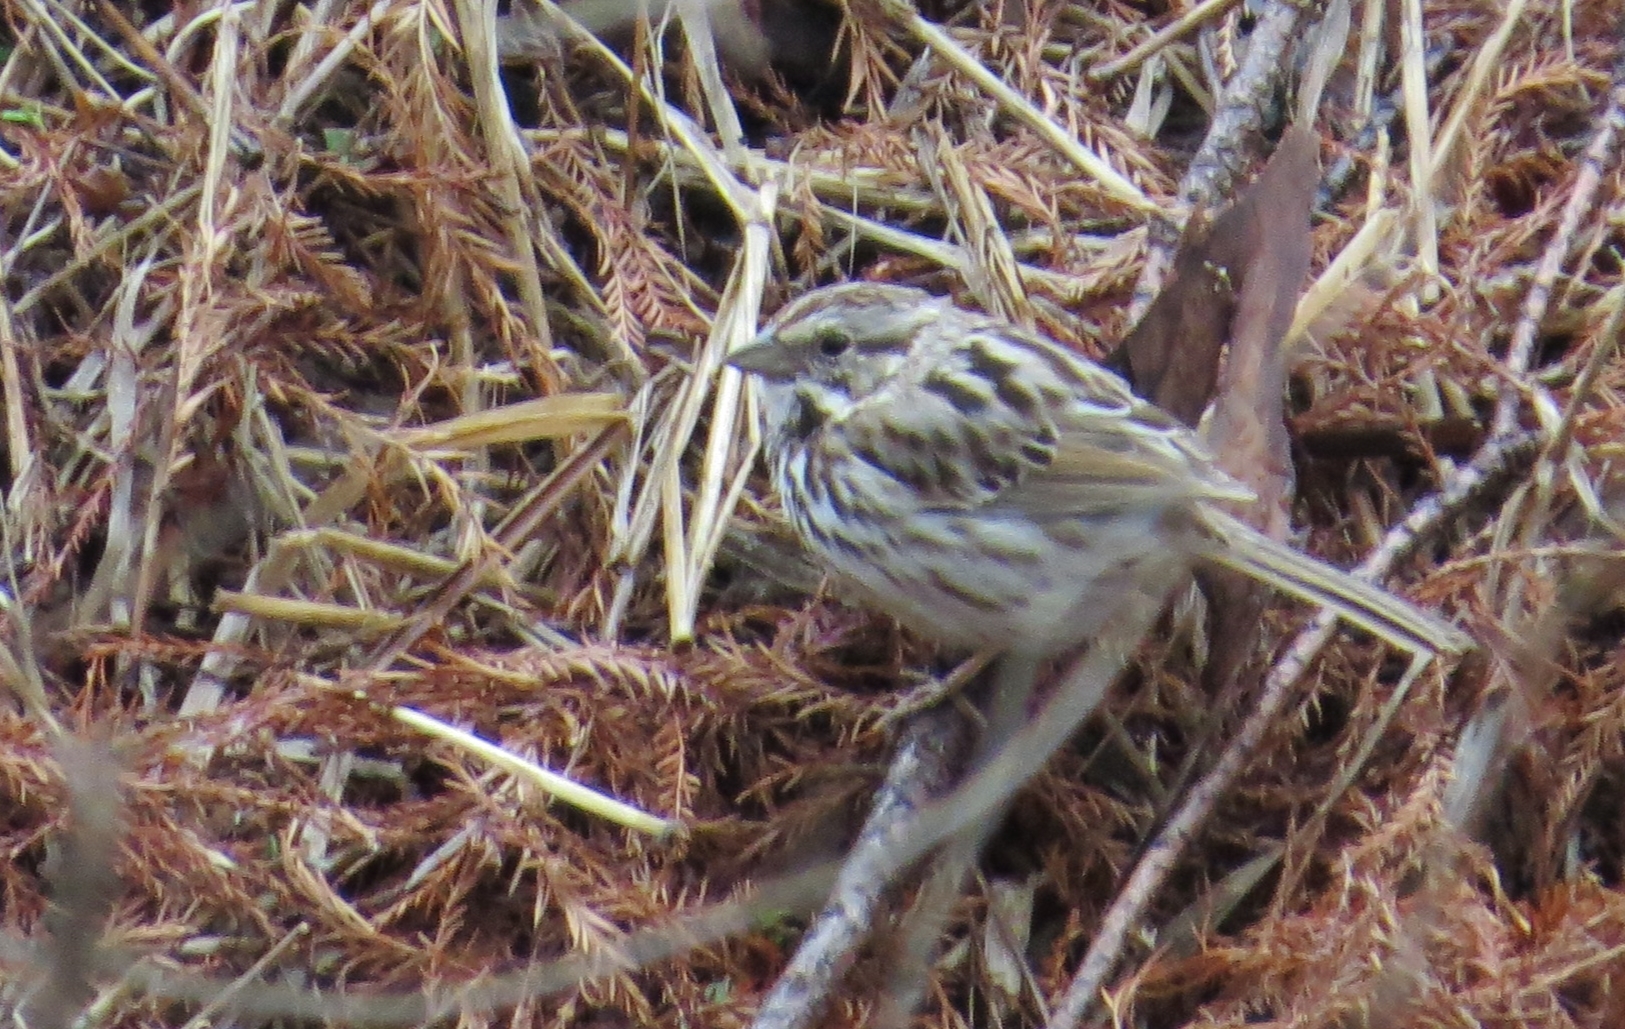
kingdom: Animalia
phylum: Chordata
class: Aves
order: Passeriformes
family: Passerellidae
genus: Melospiza
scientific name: Melospiza melodia
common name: Song sparrow
